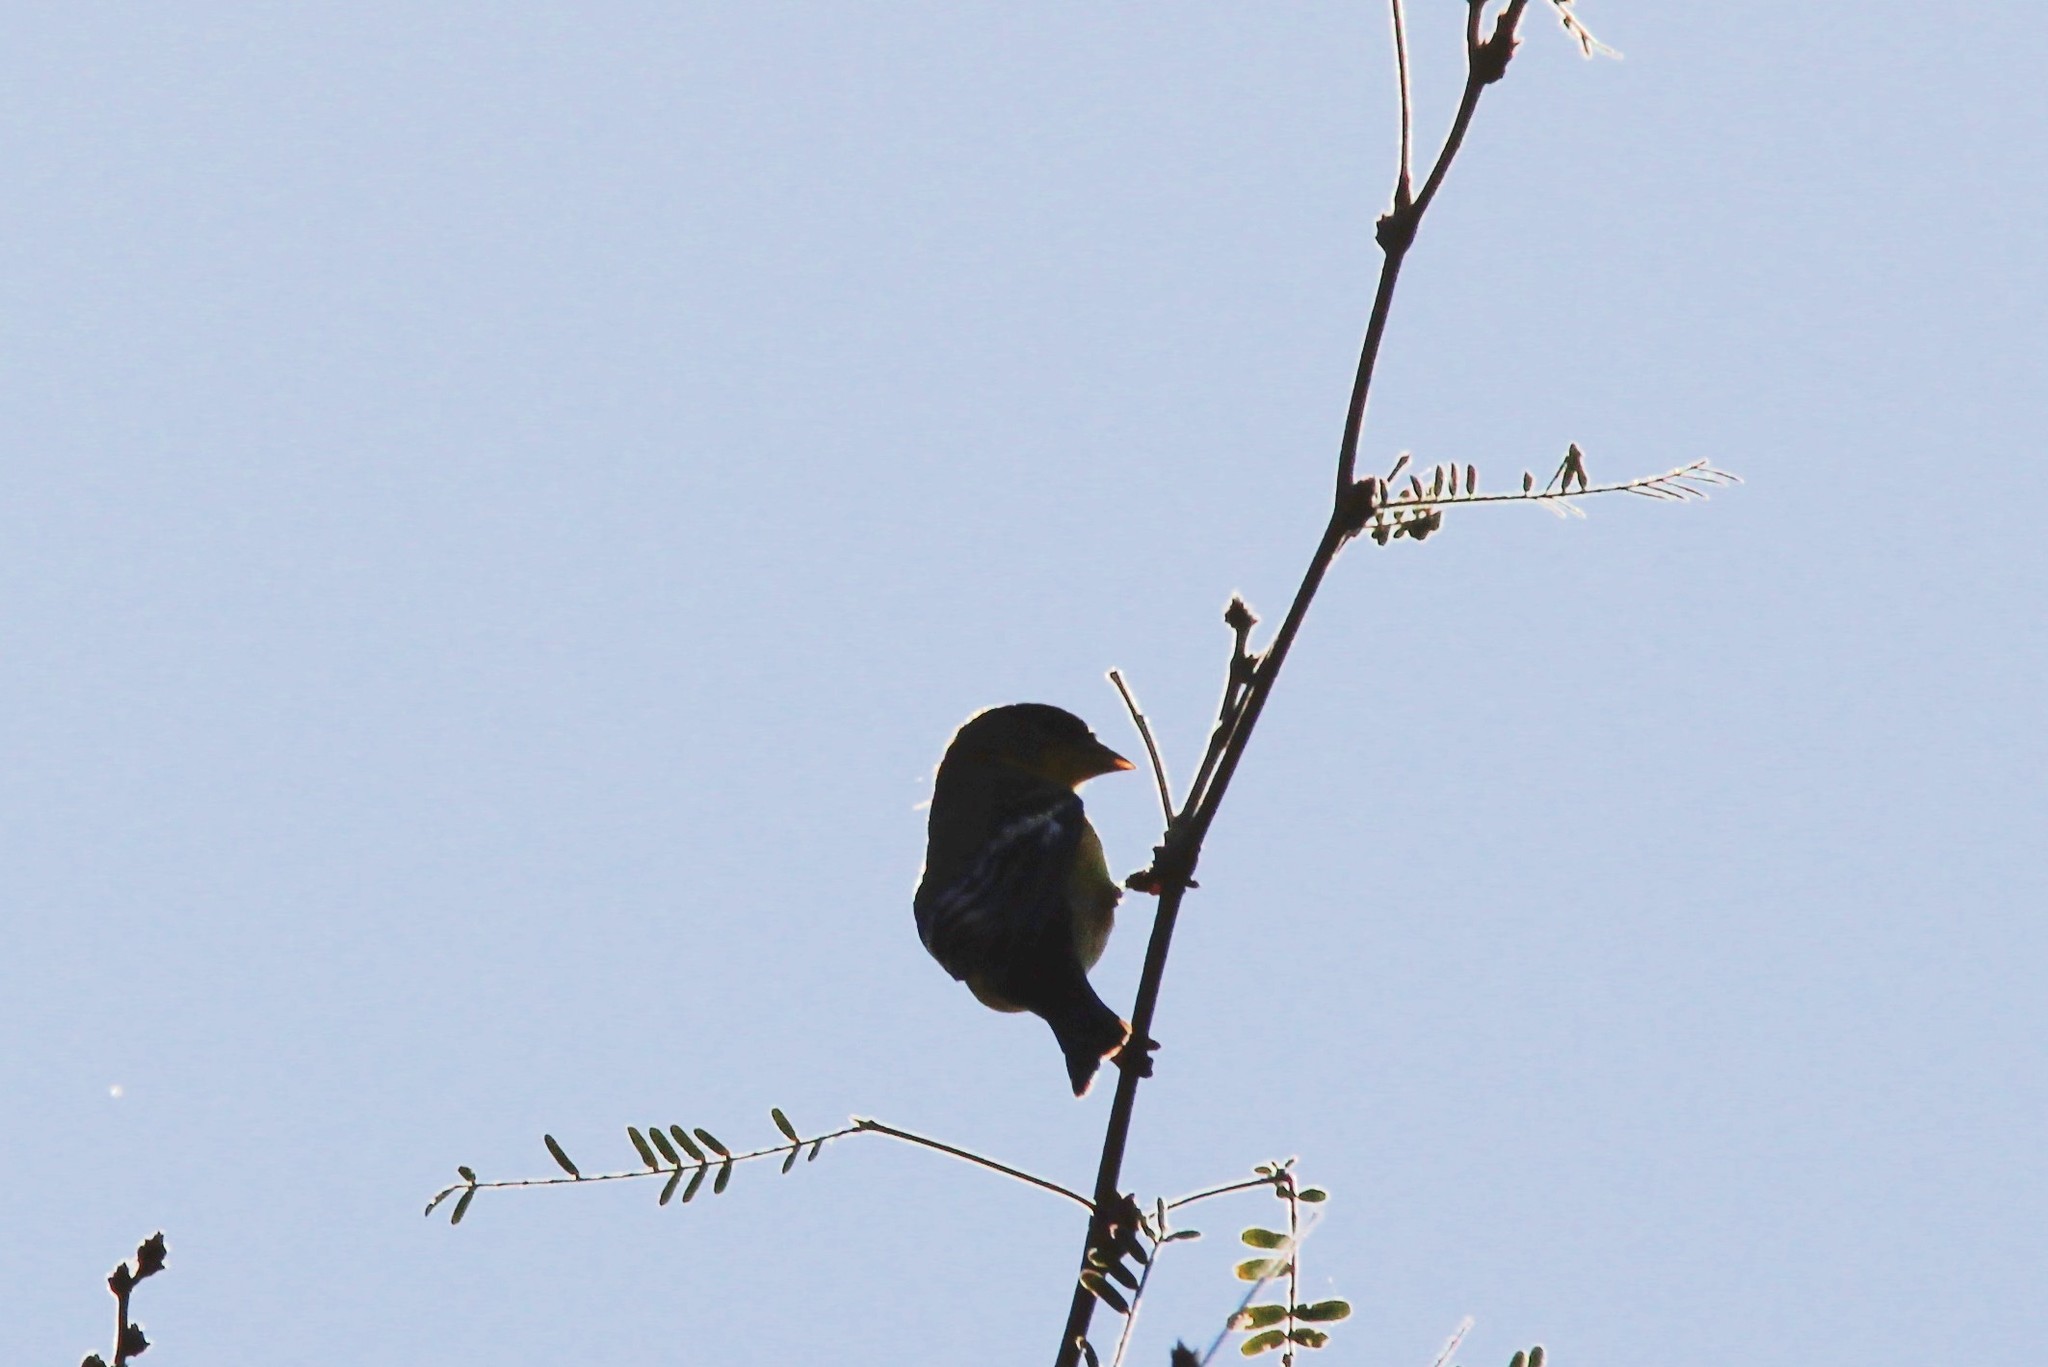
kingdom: Animalia
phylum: Chordata
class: Aves
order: Passeriformes
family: Fringillidae
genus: Spinus
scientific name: Spinus psaltria
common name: Lesser goldfinch
